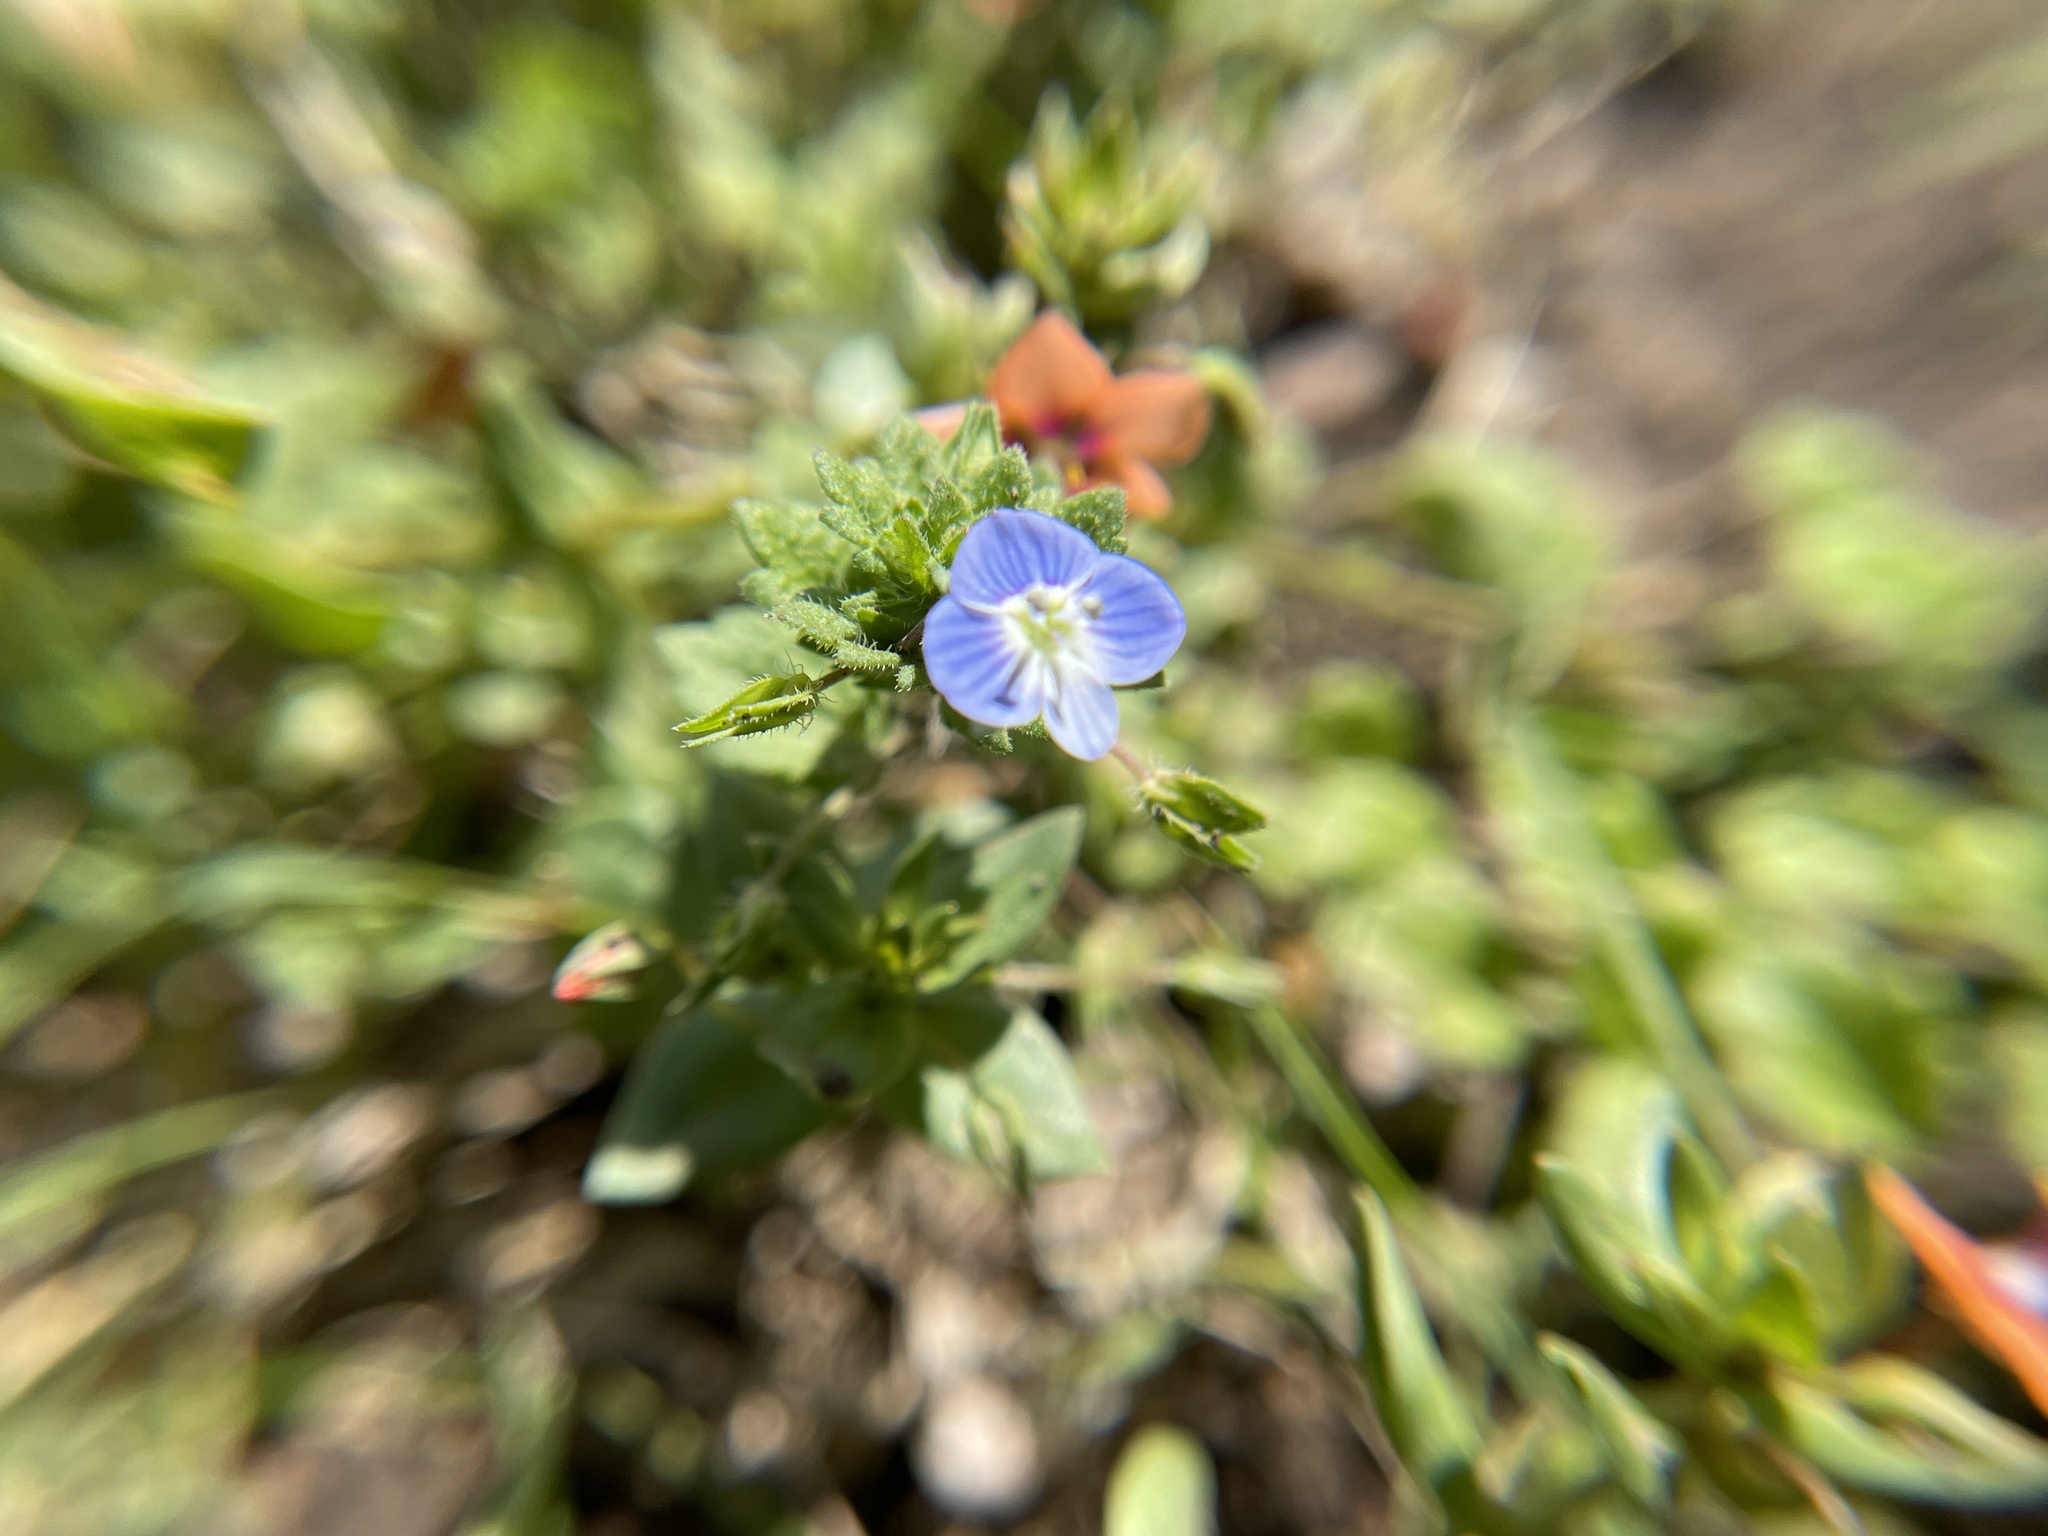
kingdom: Plantae
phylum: Tracheophyta
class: Magnoliopsida
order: Lamiales
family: Plantaginaceae
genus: Veronica
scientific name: Veronica persica
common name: Common field-speedwell
